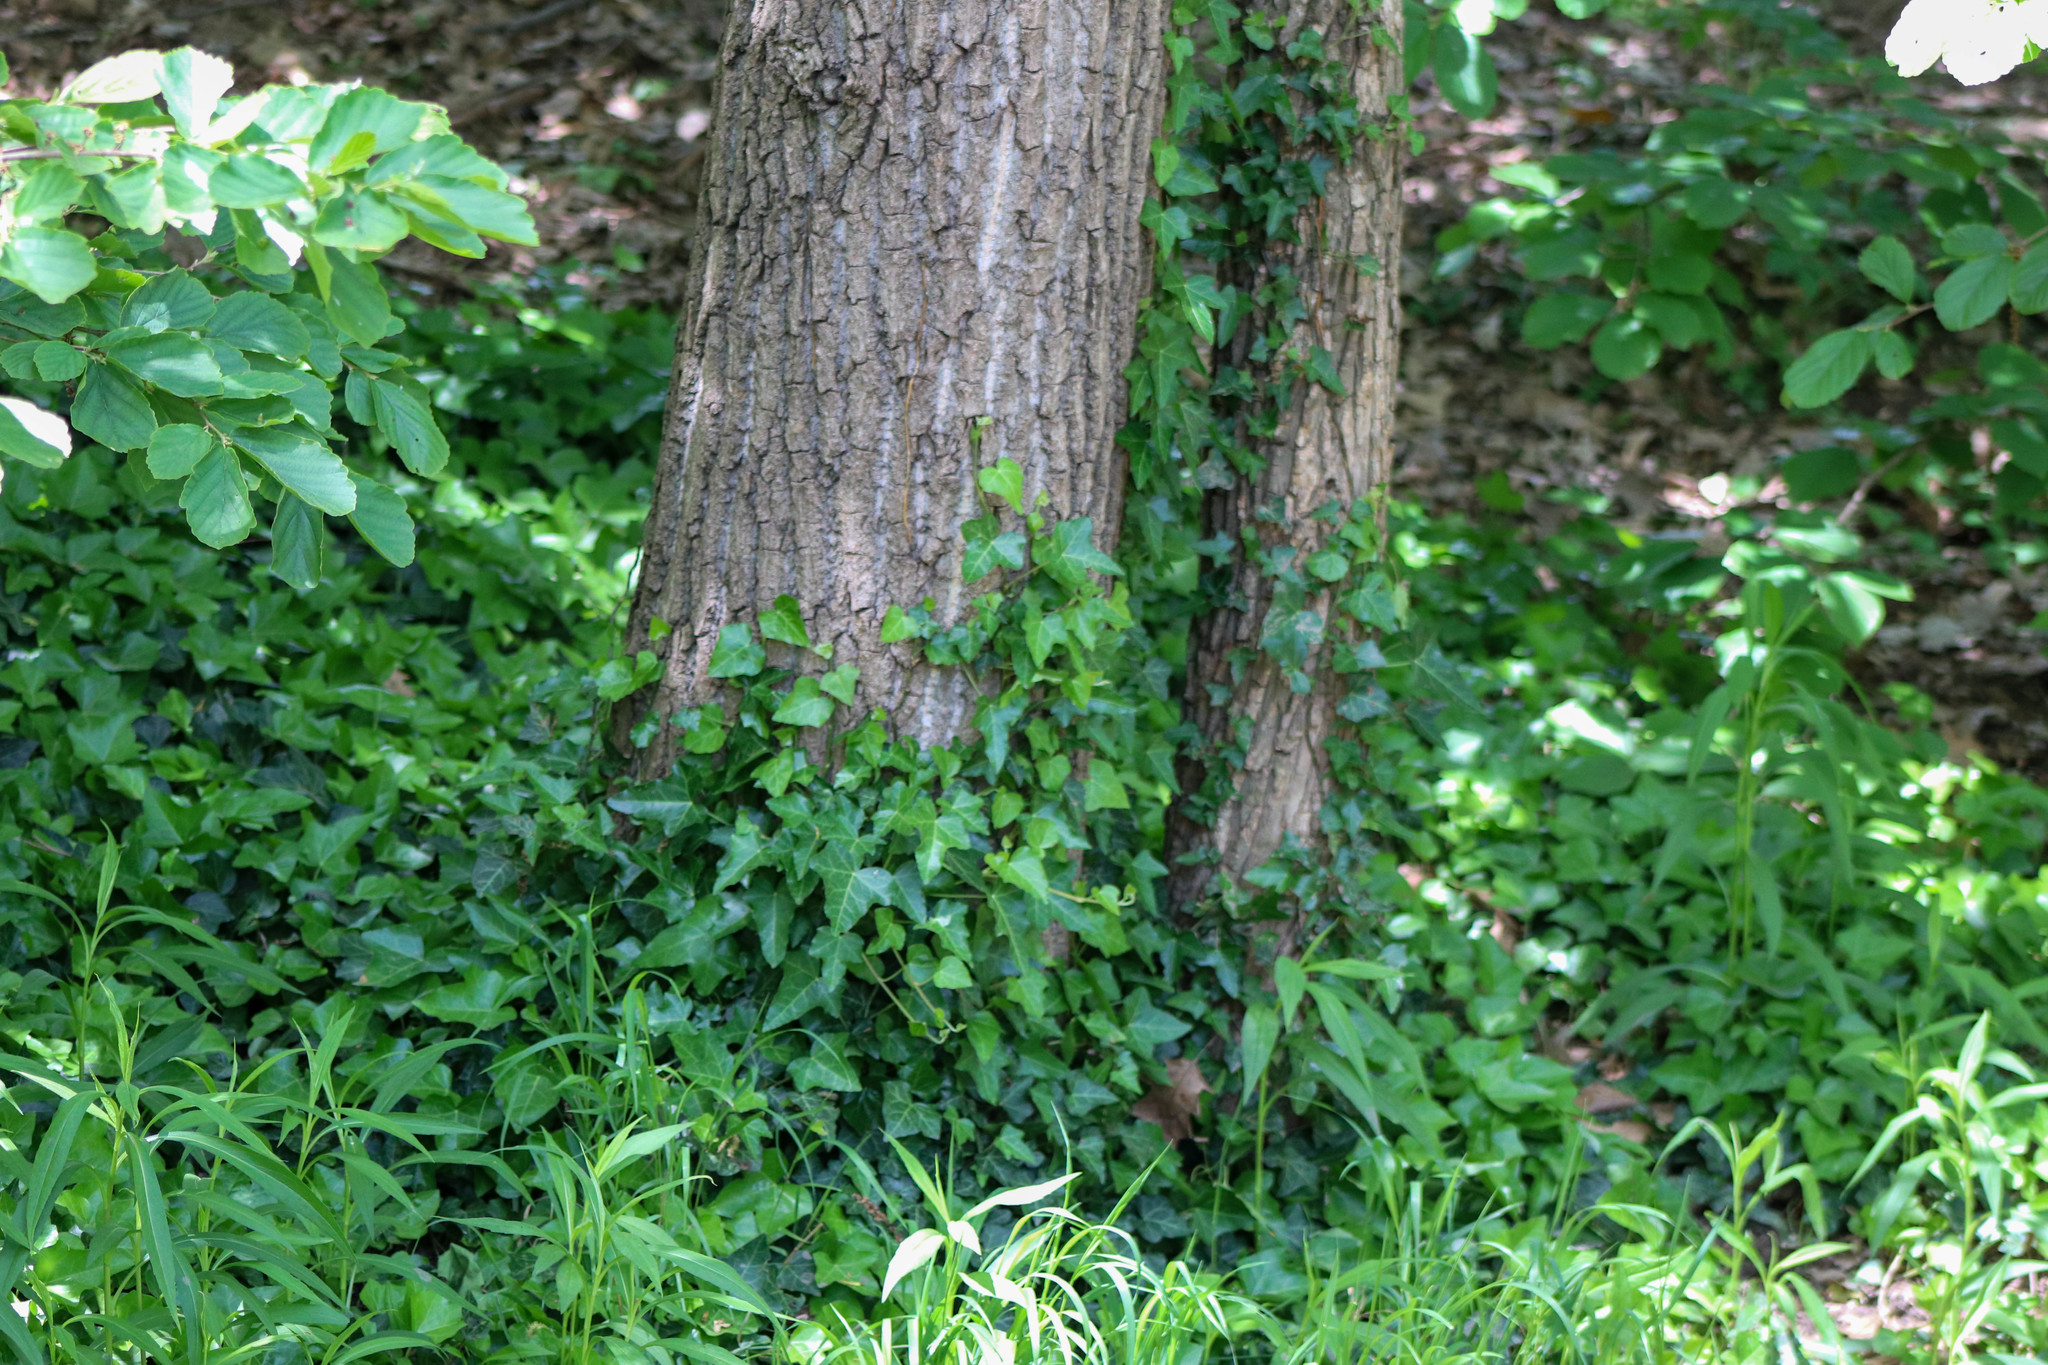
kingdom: Plantae
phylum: Tracheophyta
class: Magnoliopsida
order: Apiales
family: Araliaceae
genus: Hedera
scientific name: Hedera helix
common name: Ivy
